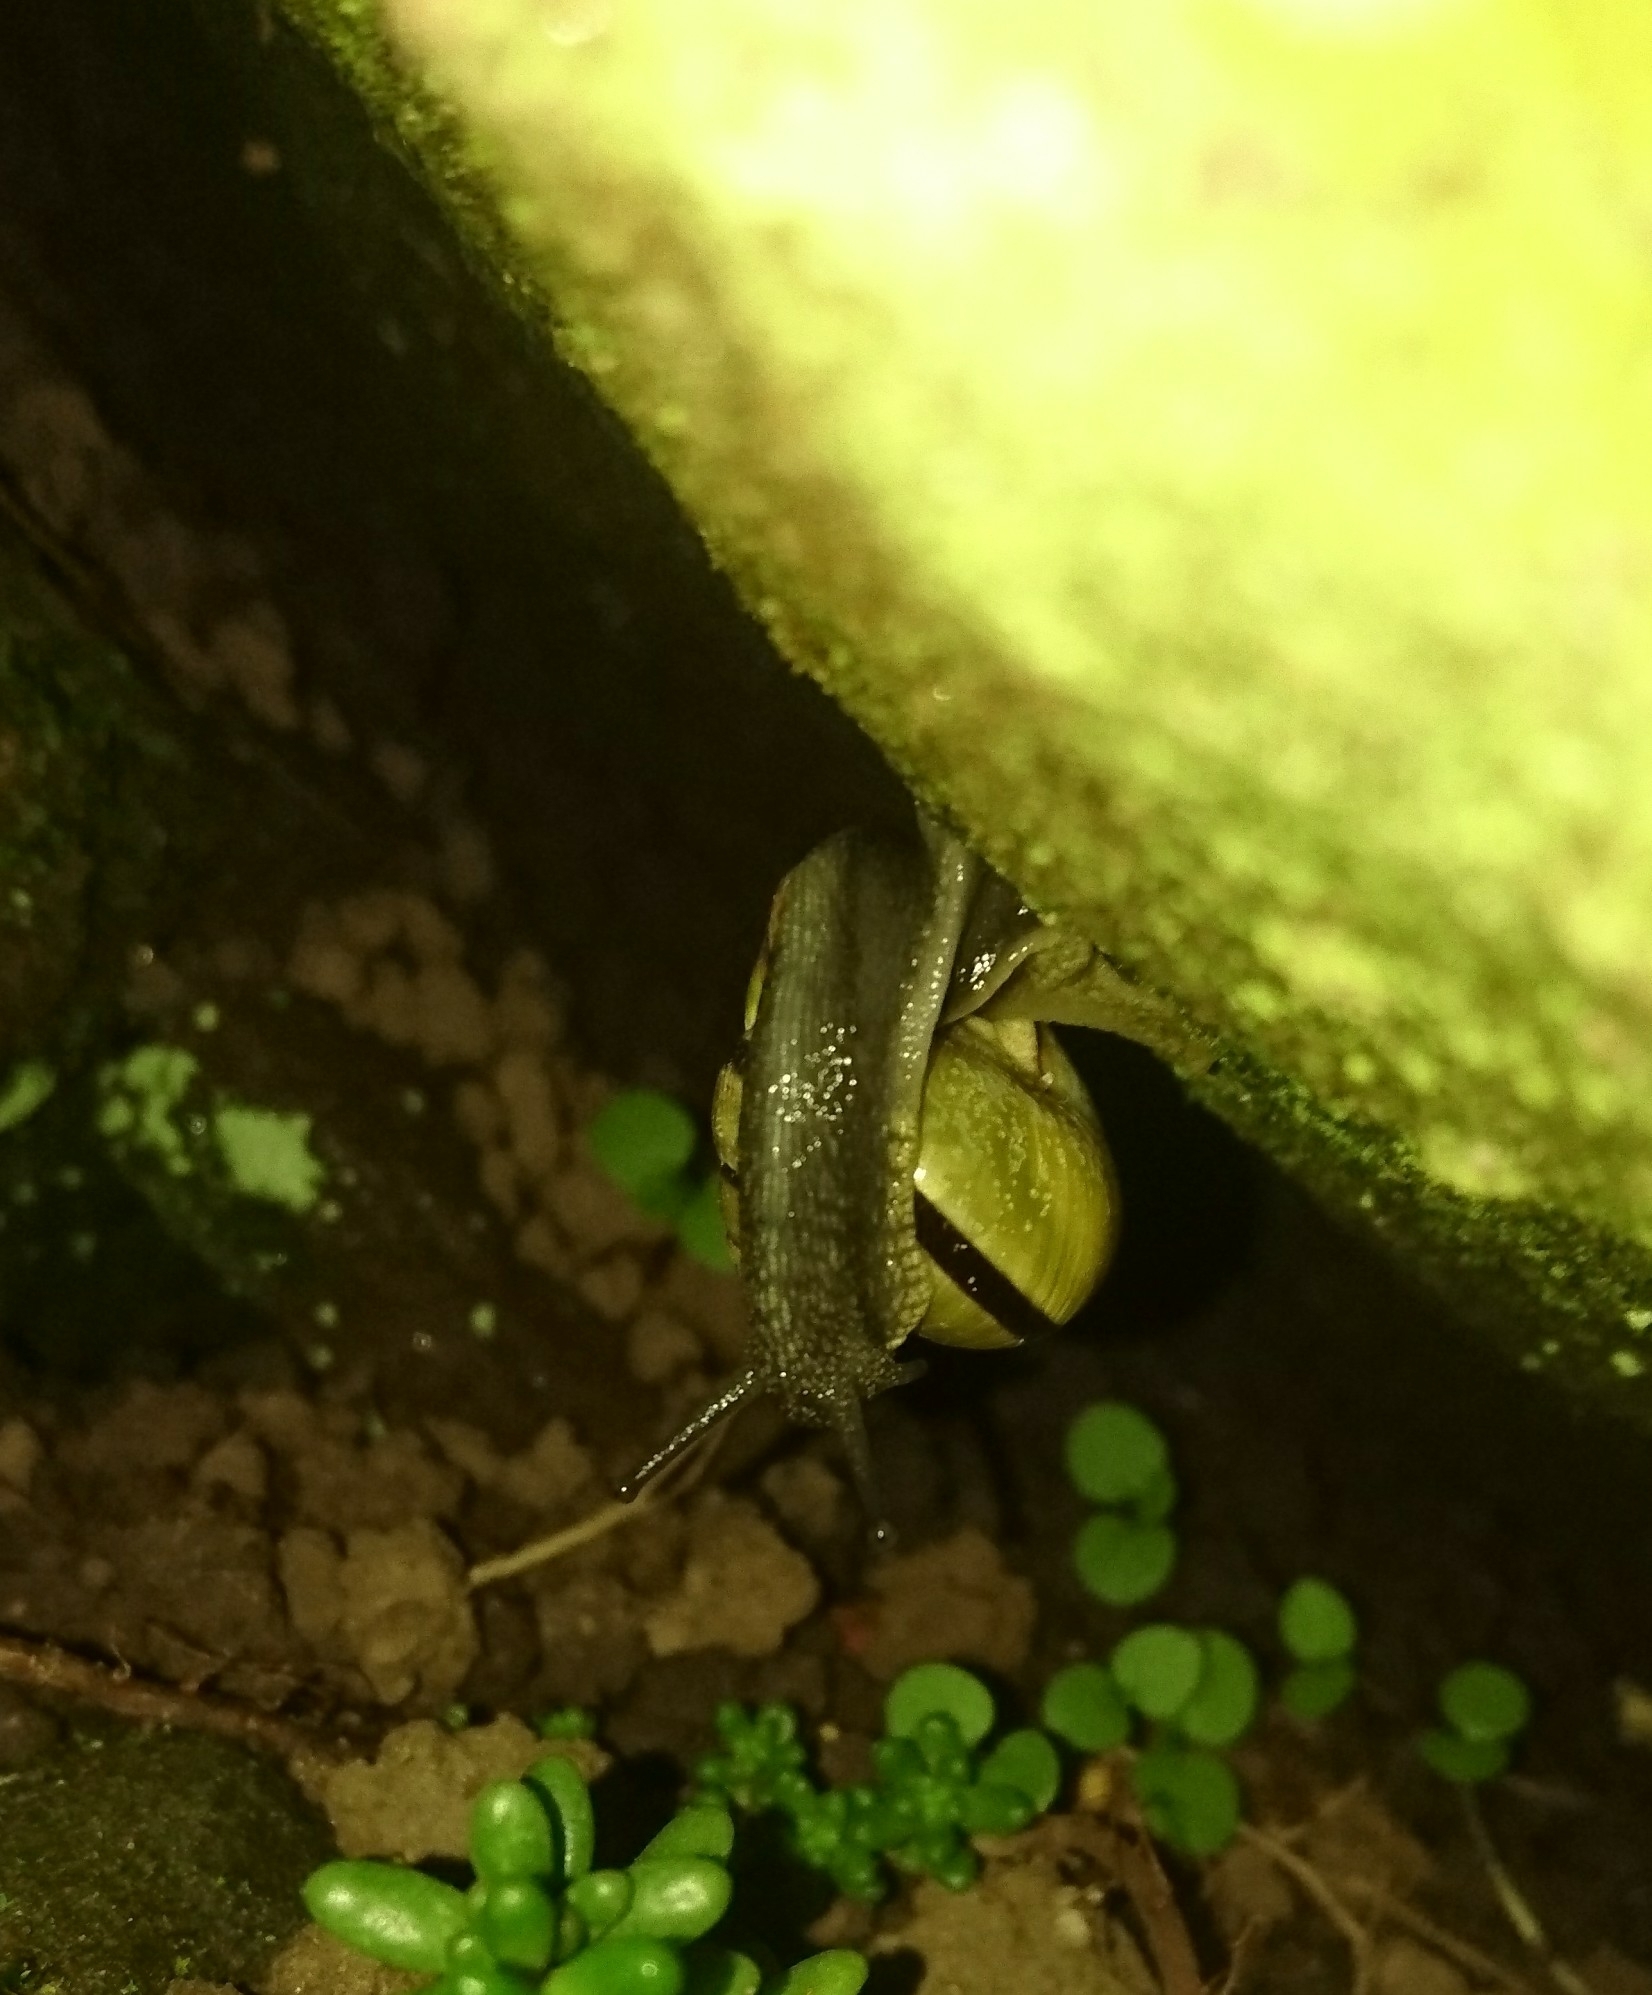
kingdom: Animalia
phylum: Mollusca
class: Gastropoda
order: Stylommatophora
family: Helicidae
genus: Cepaea
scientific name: Cepaea nemoralis
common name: Grovesnail
